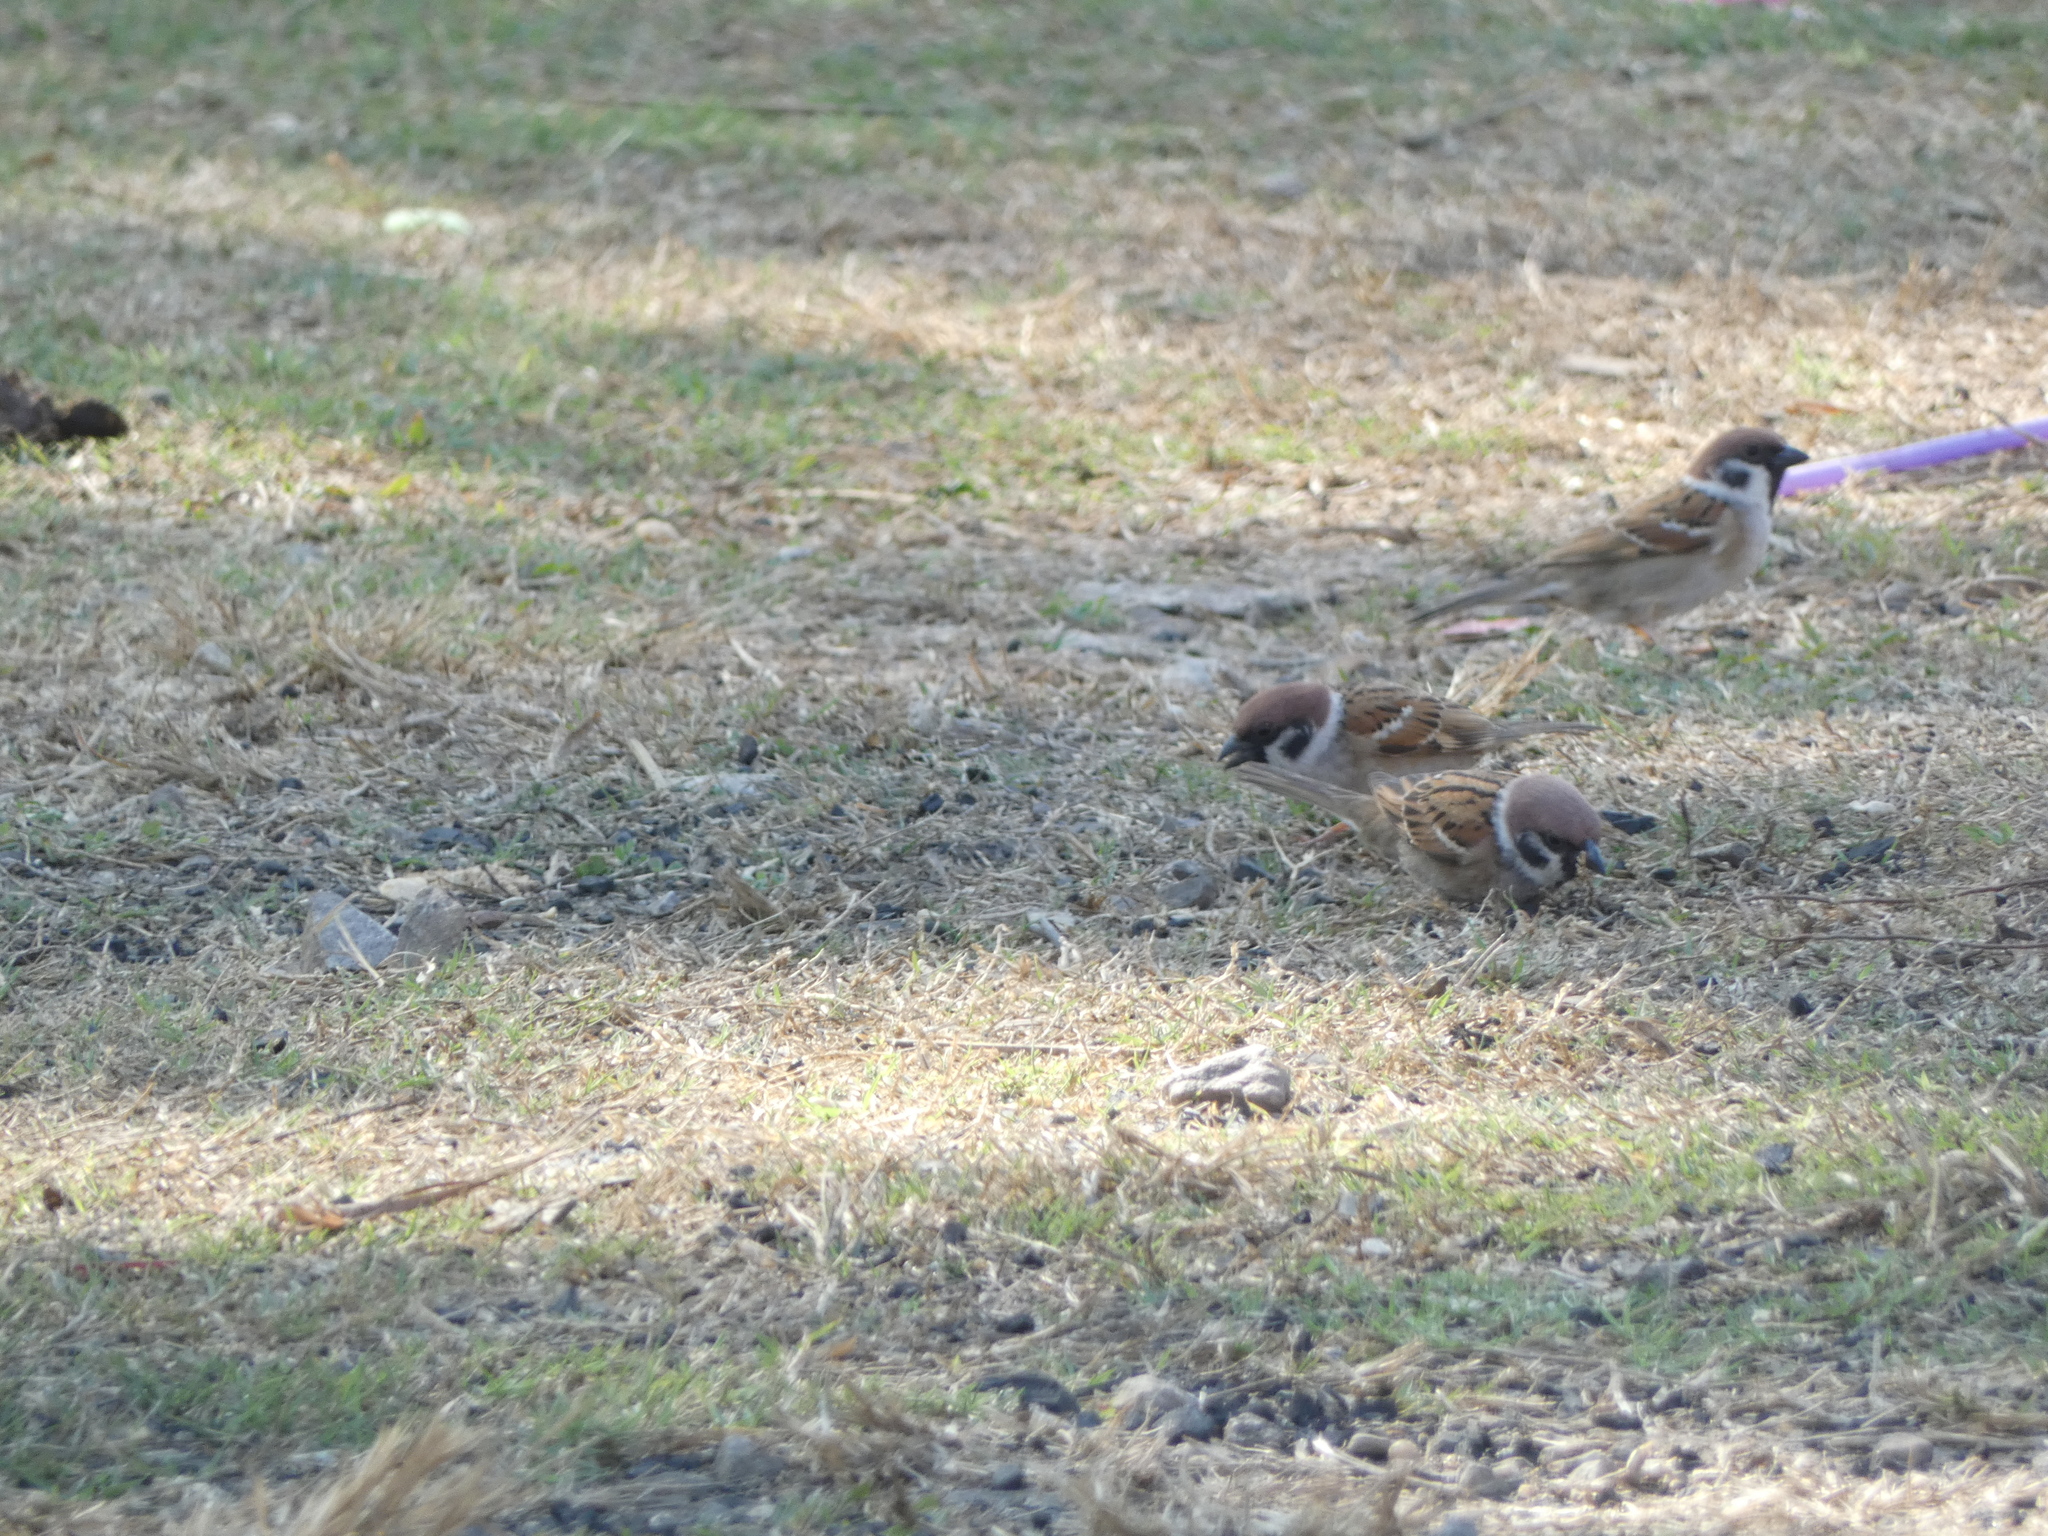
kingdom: Animalia
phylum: Chordata
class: Aves
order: Passeriformes
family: Passeridae
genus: Passer
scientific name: Passer montanus
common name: Eurasian tree sparrow
